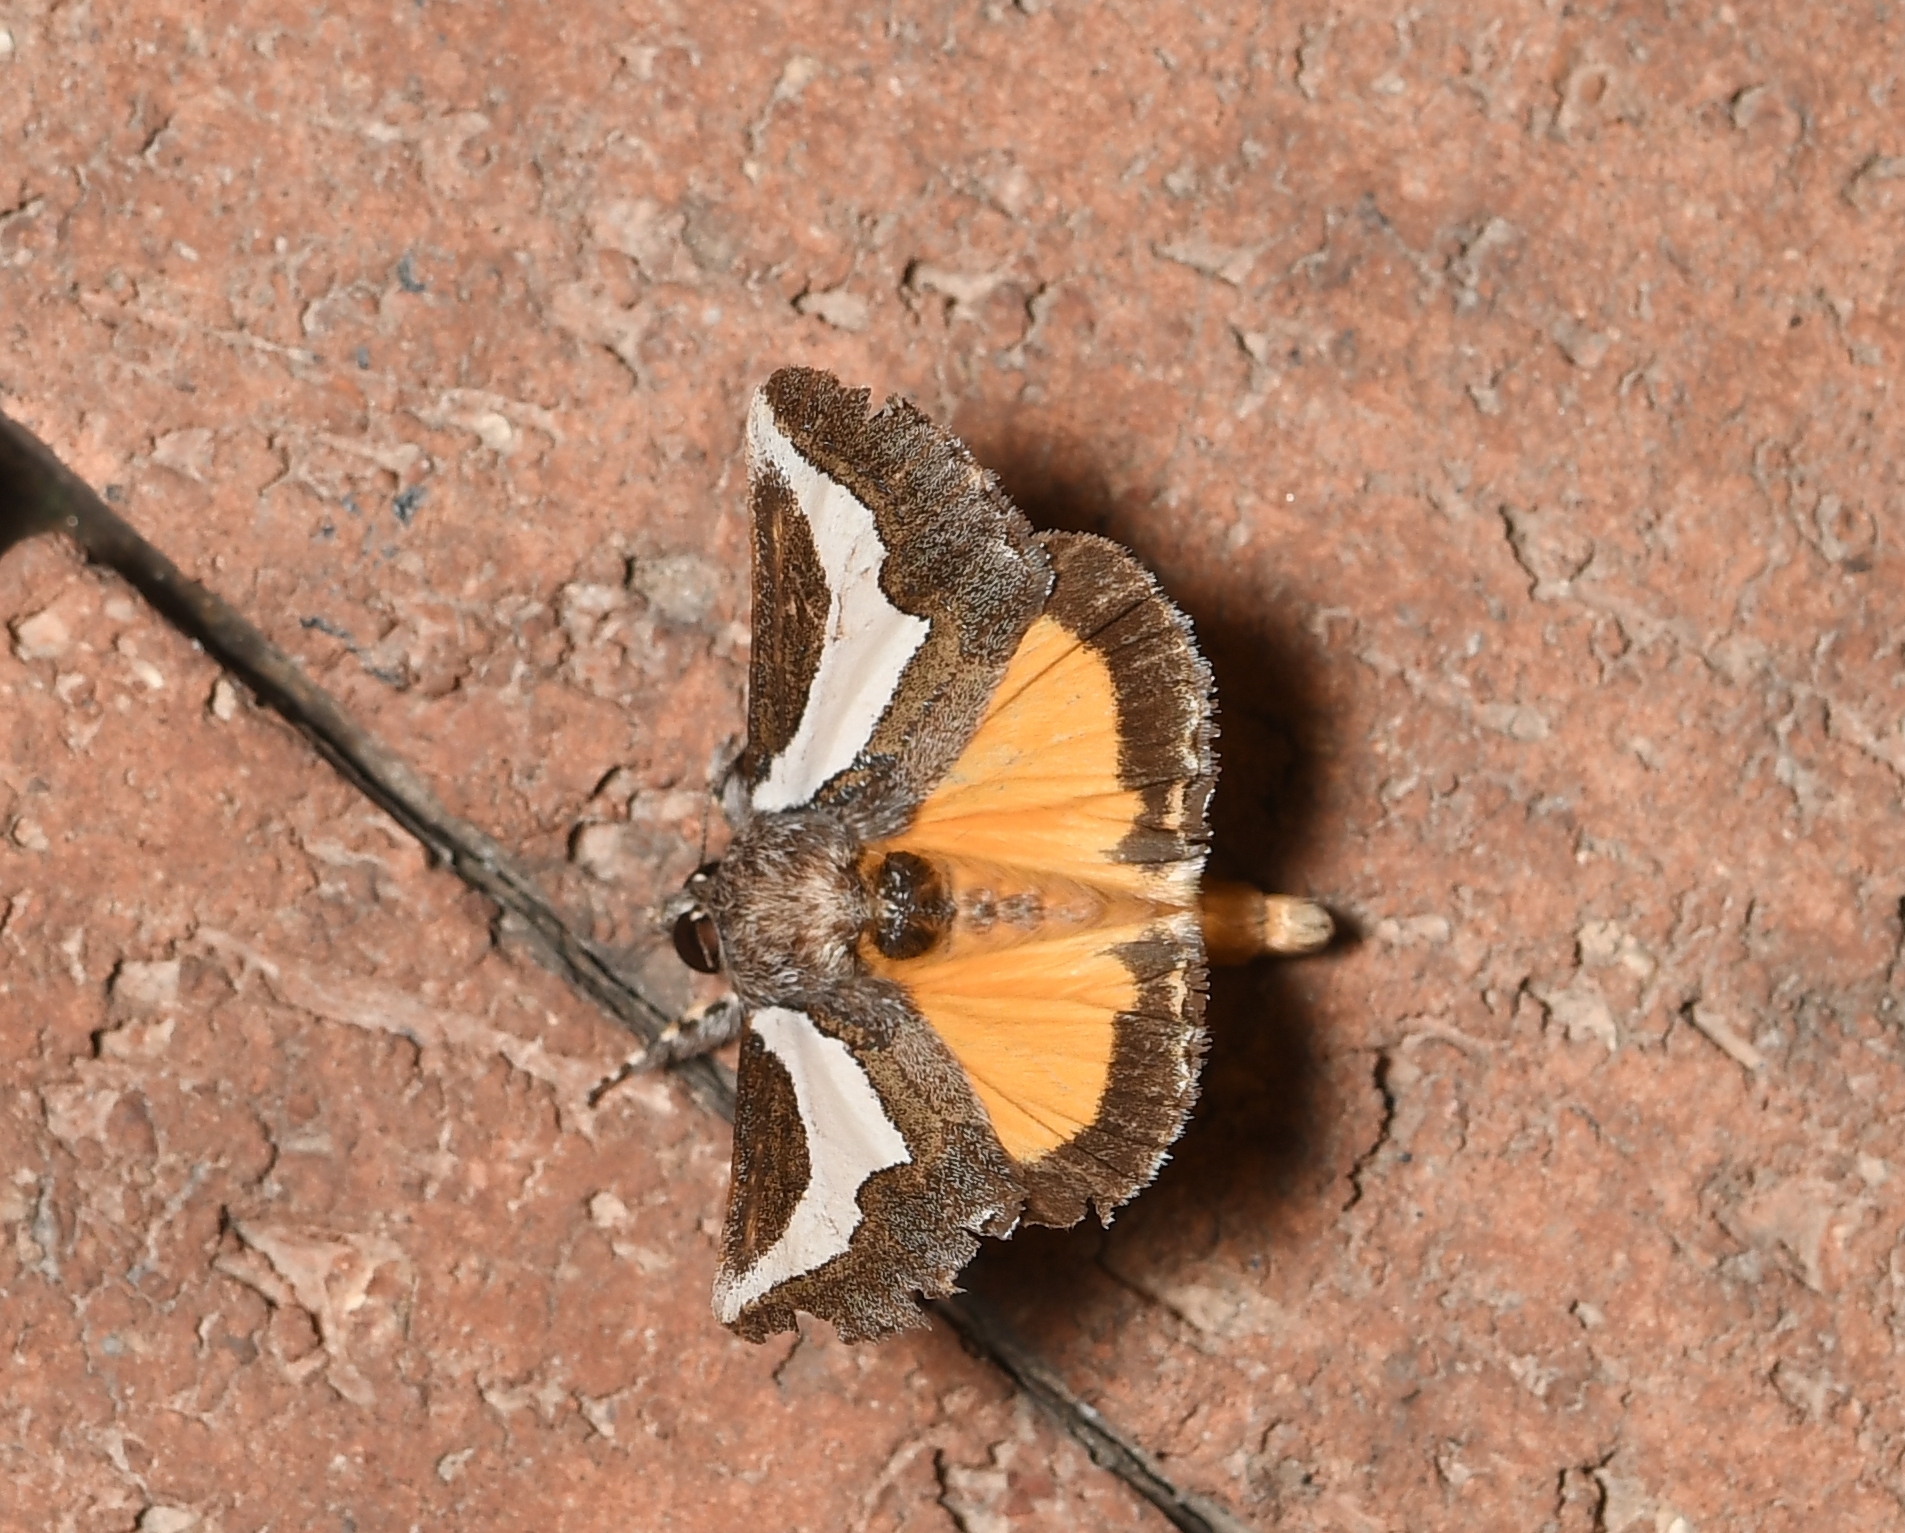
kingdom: Animalia
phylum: Arthropoda
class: Insecta
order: Lepidoptera
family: Noctuidae
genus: Euscirrhopterus
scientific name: Euscirrhopterus cosyra
